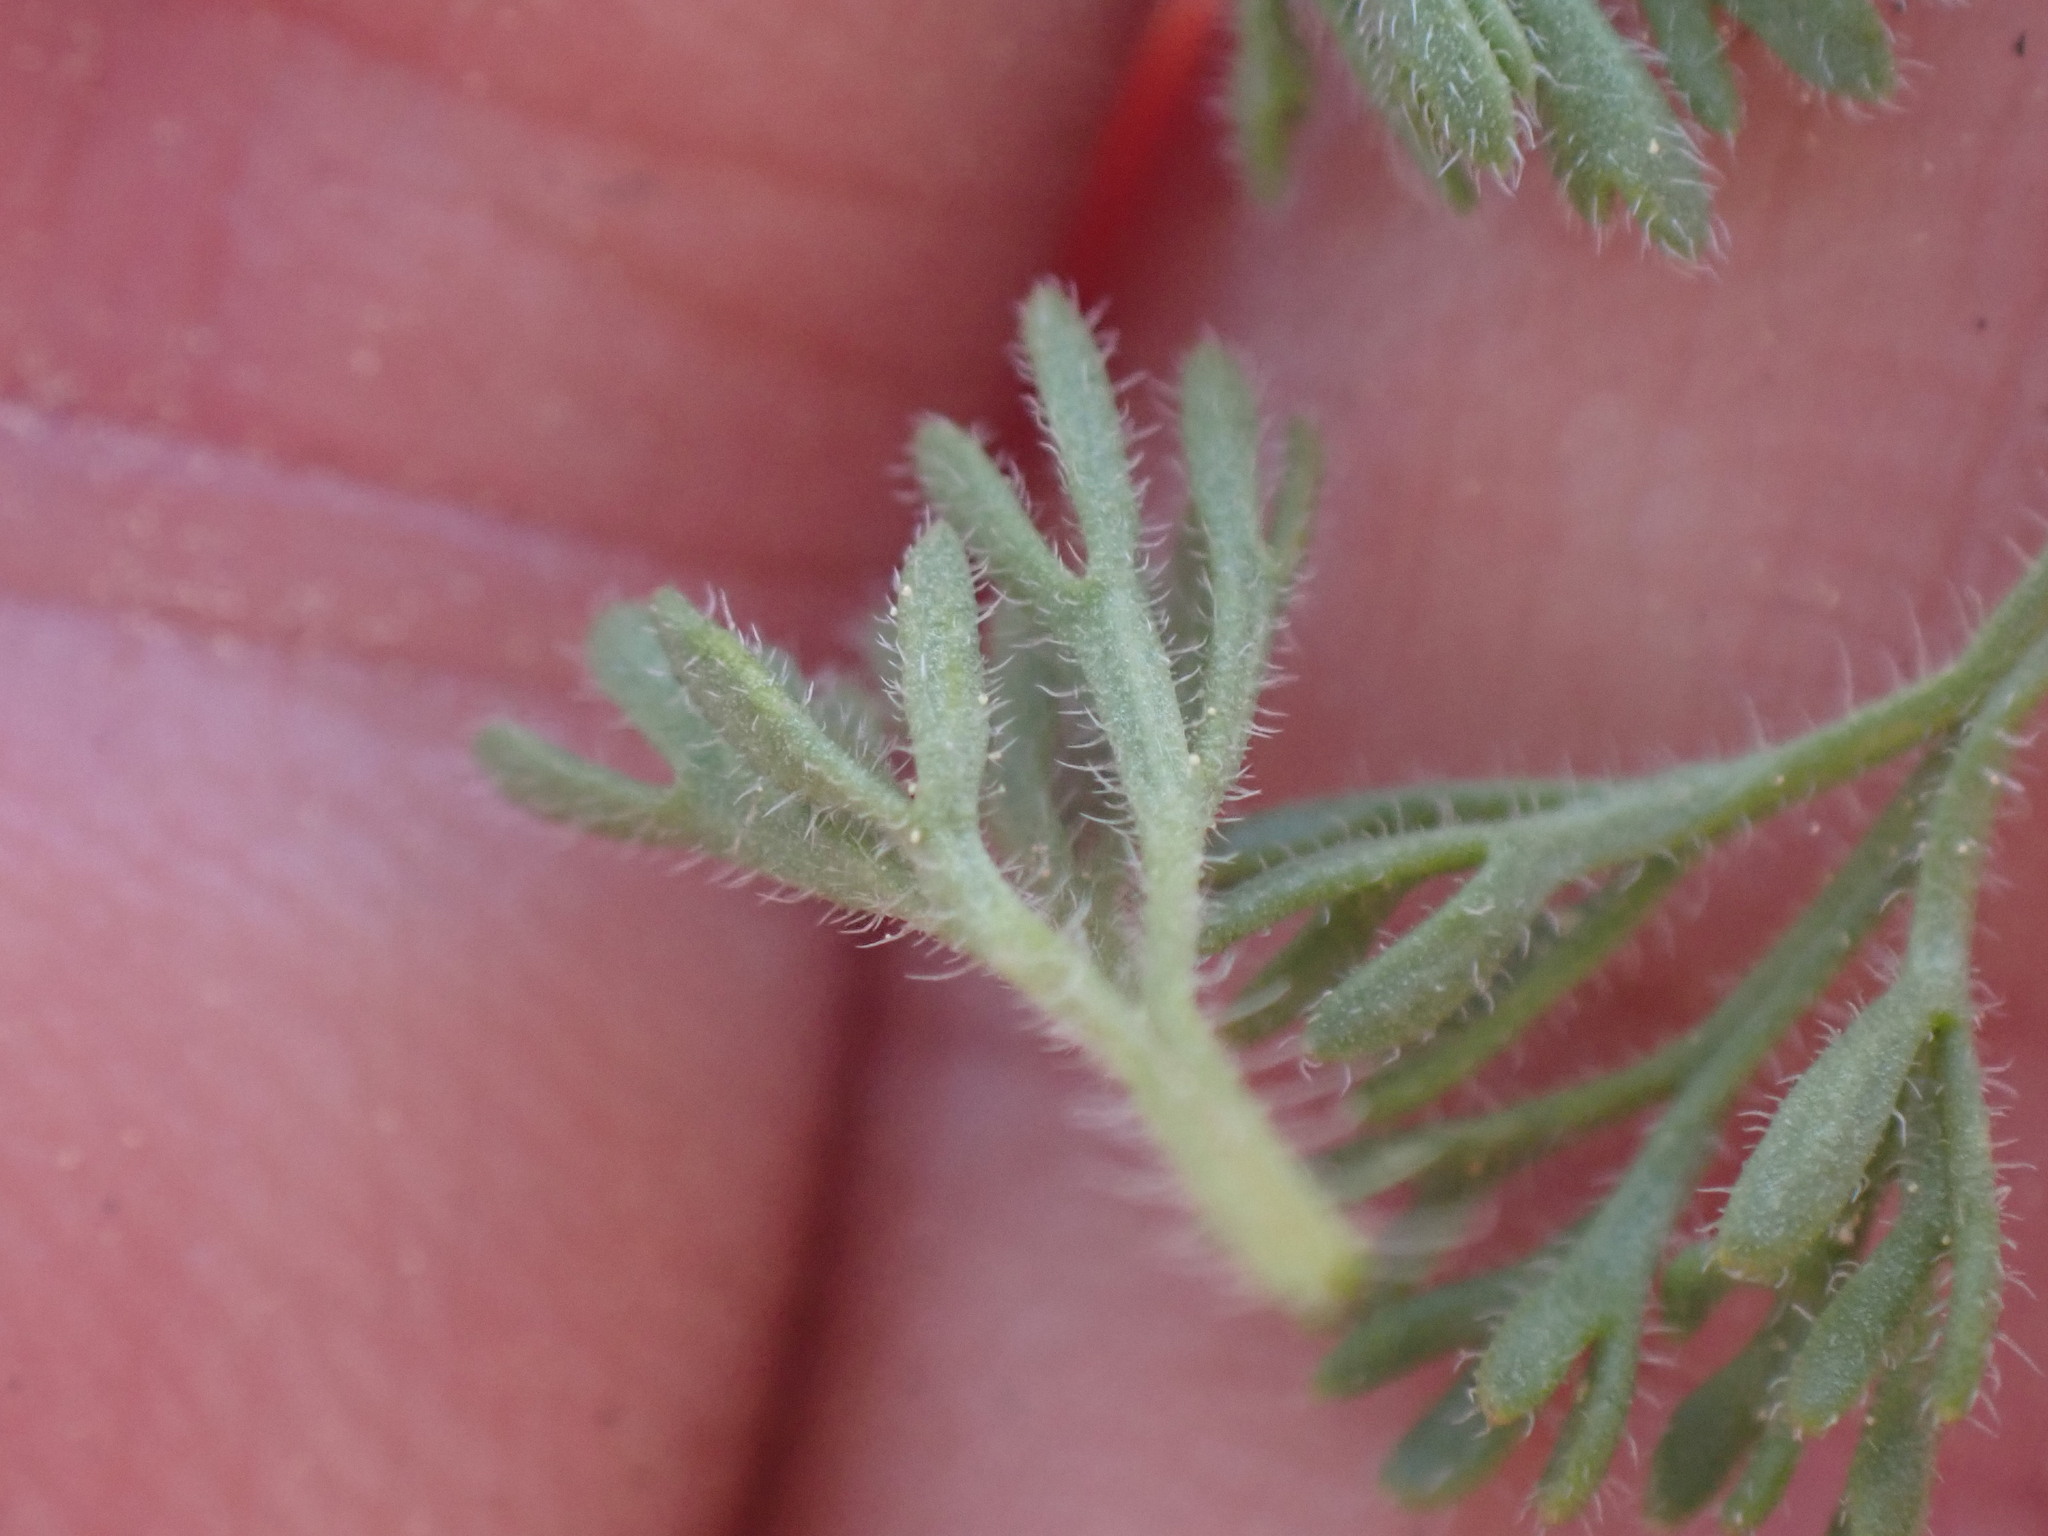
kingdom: Plantae
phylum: Tracheophyta
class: Magnoliopsida
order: Asterales
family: Asteraceae
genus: Erigeron
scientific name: Erigeron compositus
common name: Dwarf mountain fleabane
